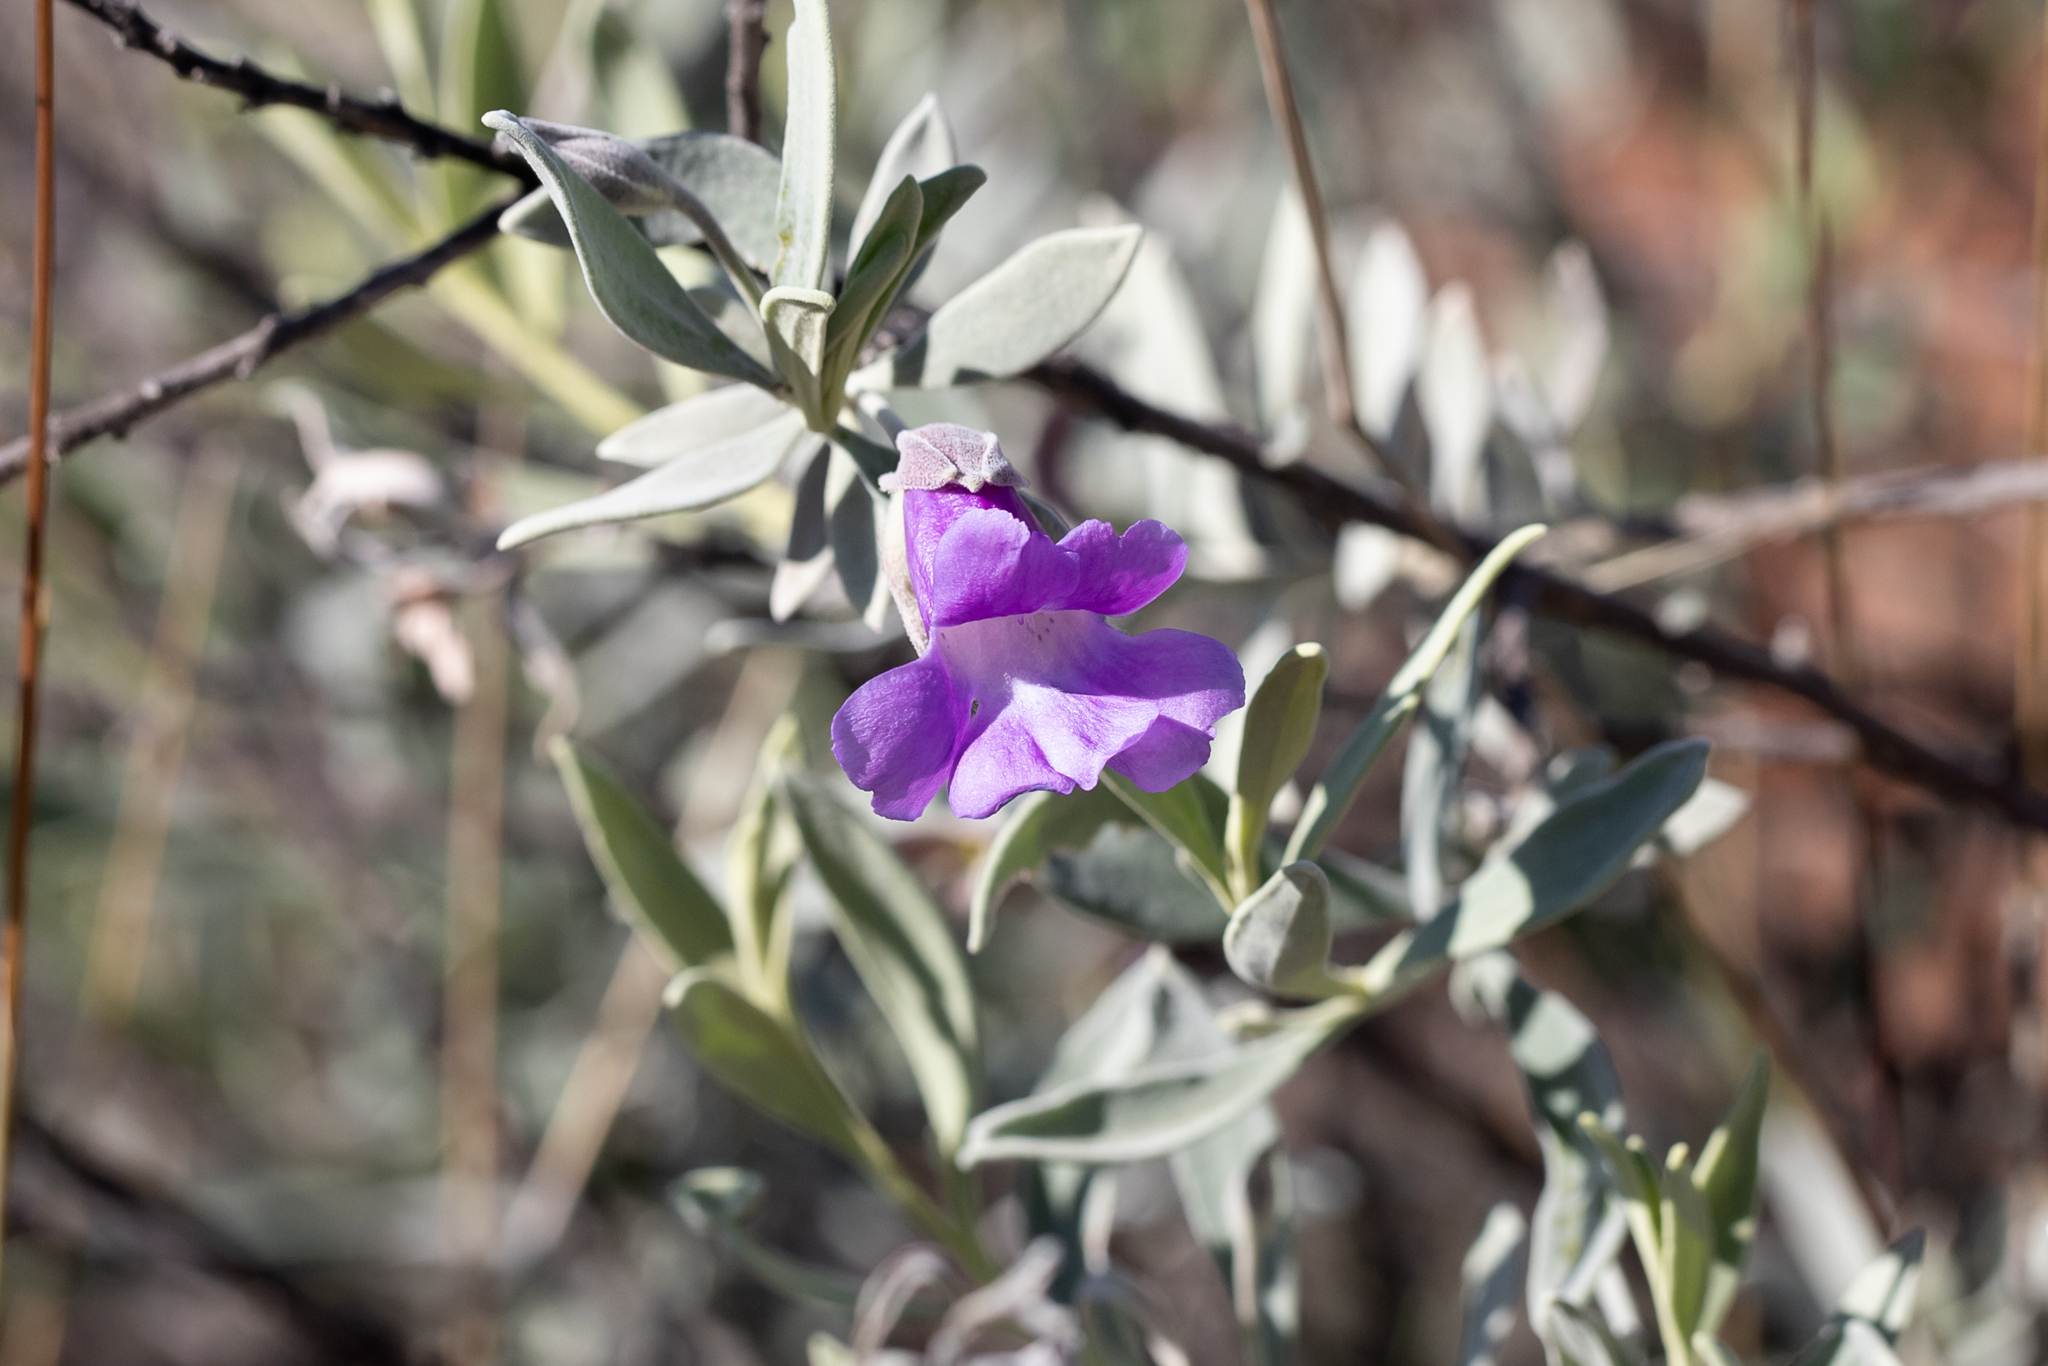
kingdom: Plantae
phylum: Tracheophyta
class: Magnoliopsida
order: Lamiales
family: Scrophulariaceae
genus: Eremophila
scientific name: Eremophila bowmanii
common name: Silver turkeybush
